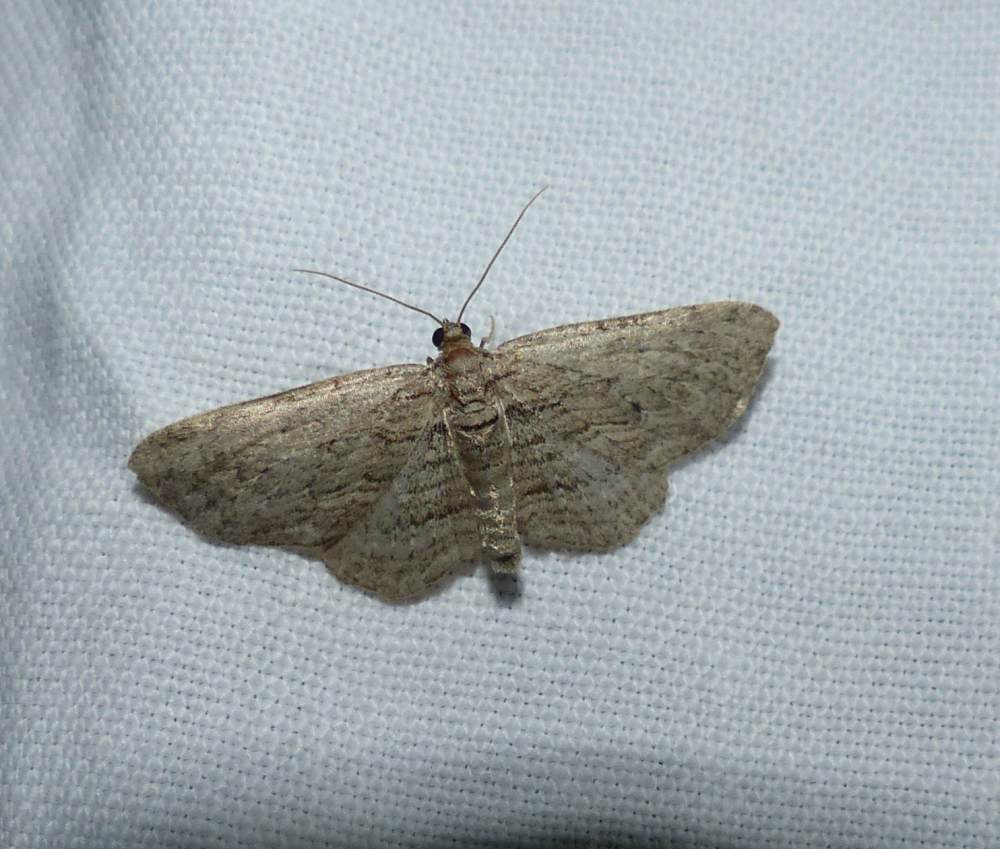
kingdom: Animalia
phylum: Arthropoda
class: Insecta
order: Lepidoptera
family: Geometridae
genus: Horisme
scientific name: Horisme intestinata
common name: Brown bark carpet
